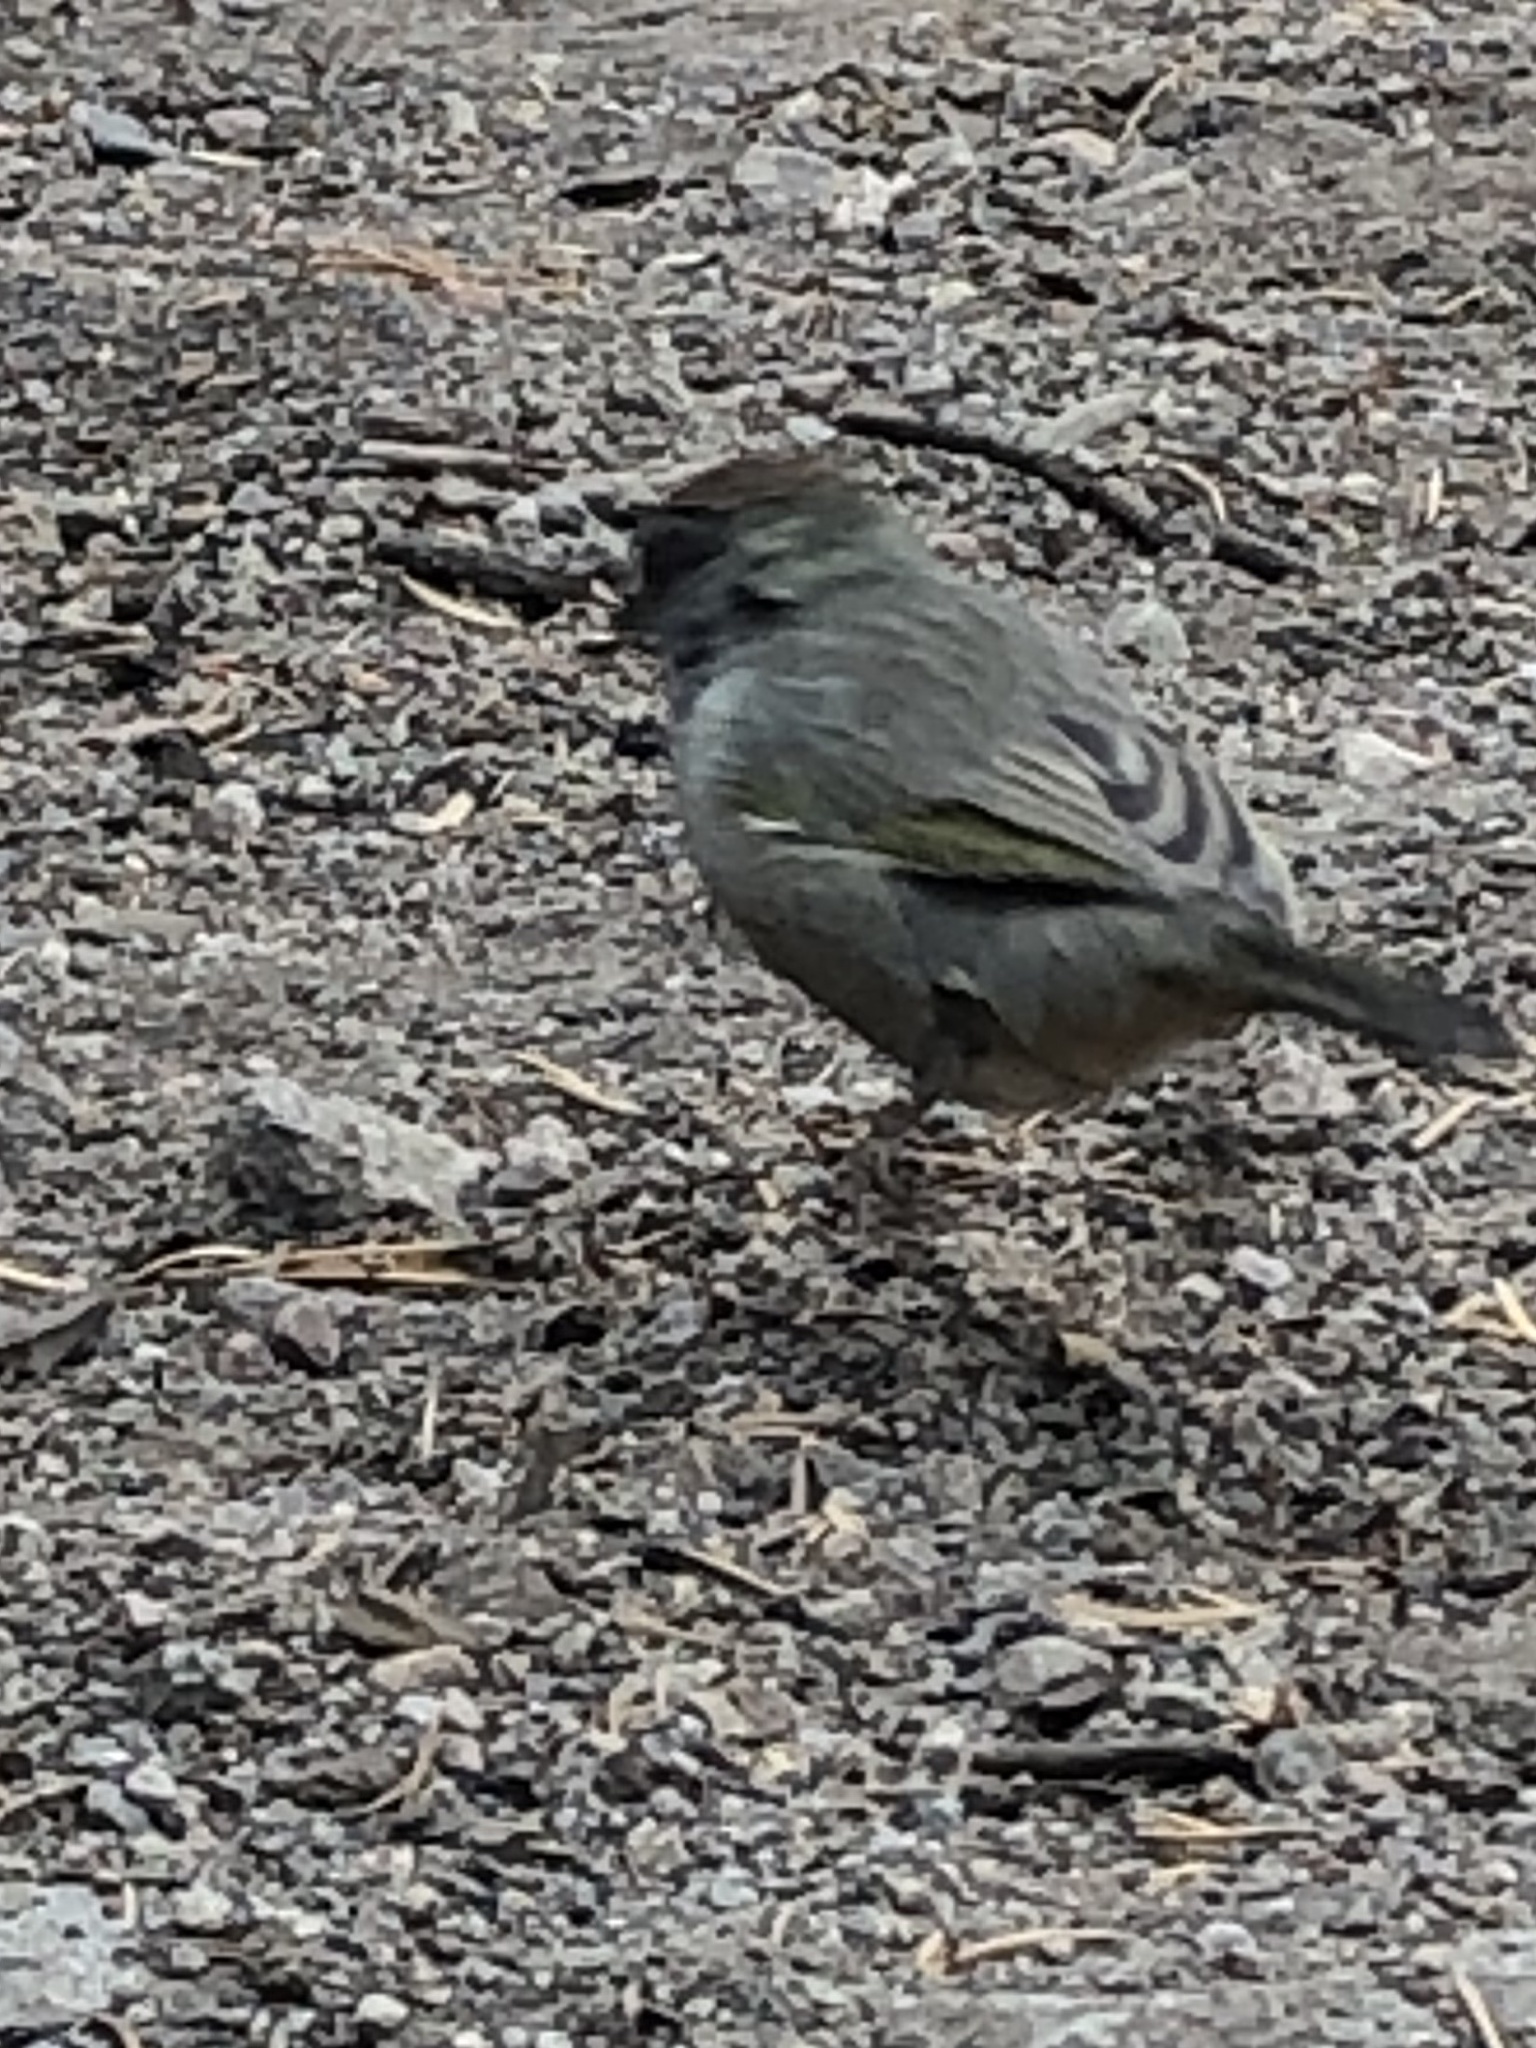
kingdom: Animalia
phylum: Chordata
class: Aves
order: Passeriformes
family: Passerellidae
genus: Pipilo
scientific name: Pipilo chlorurus
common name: Green-tailed towhee
